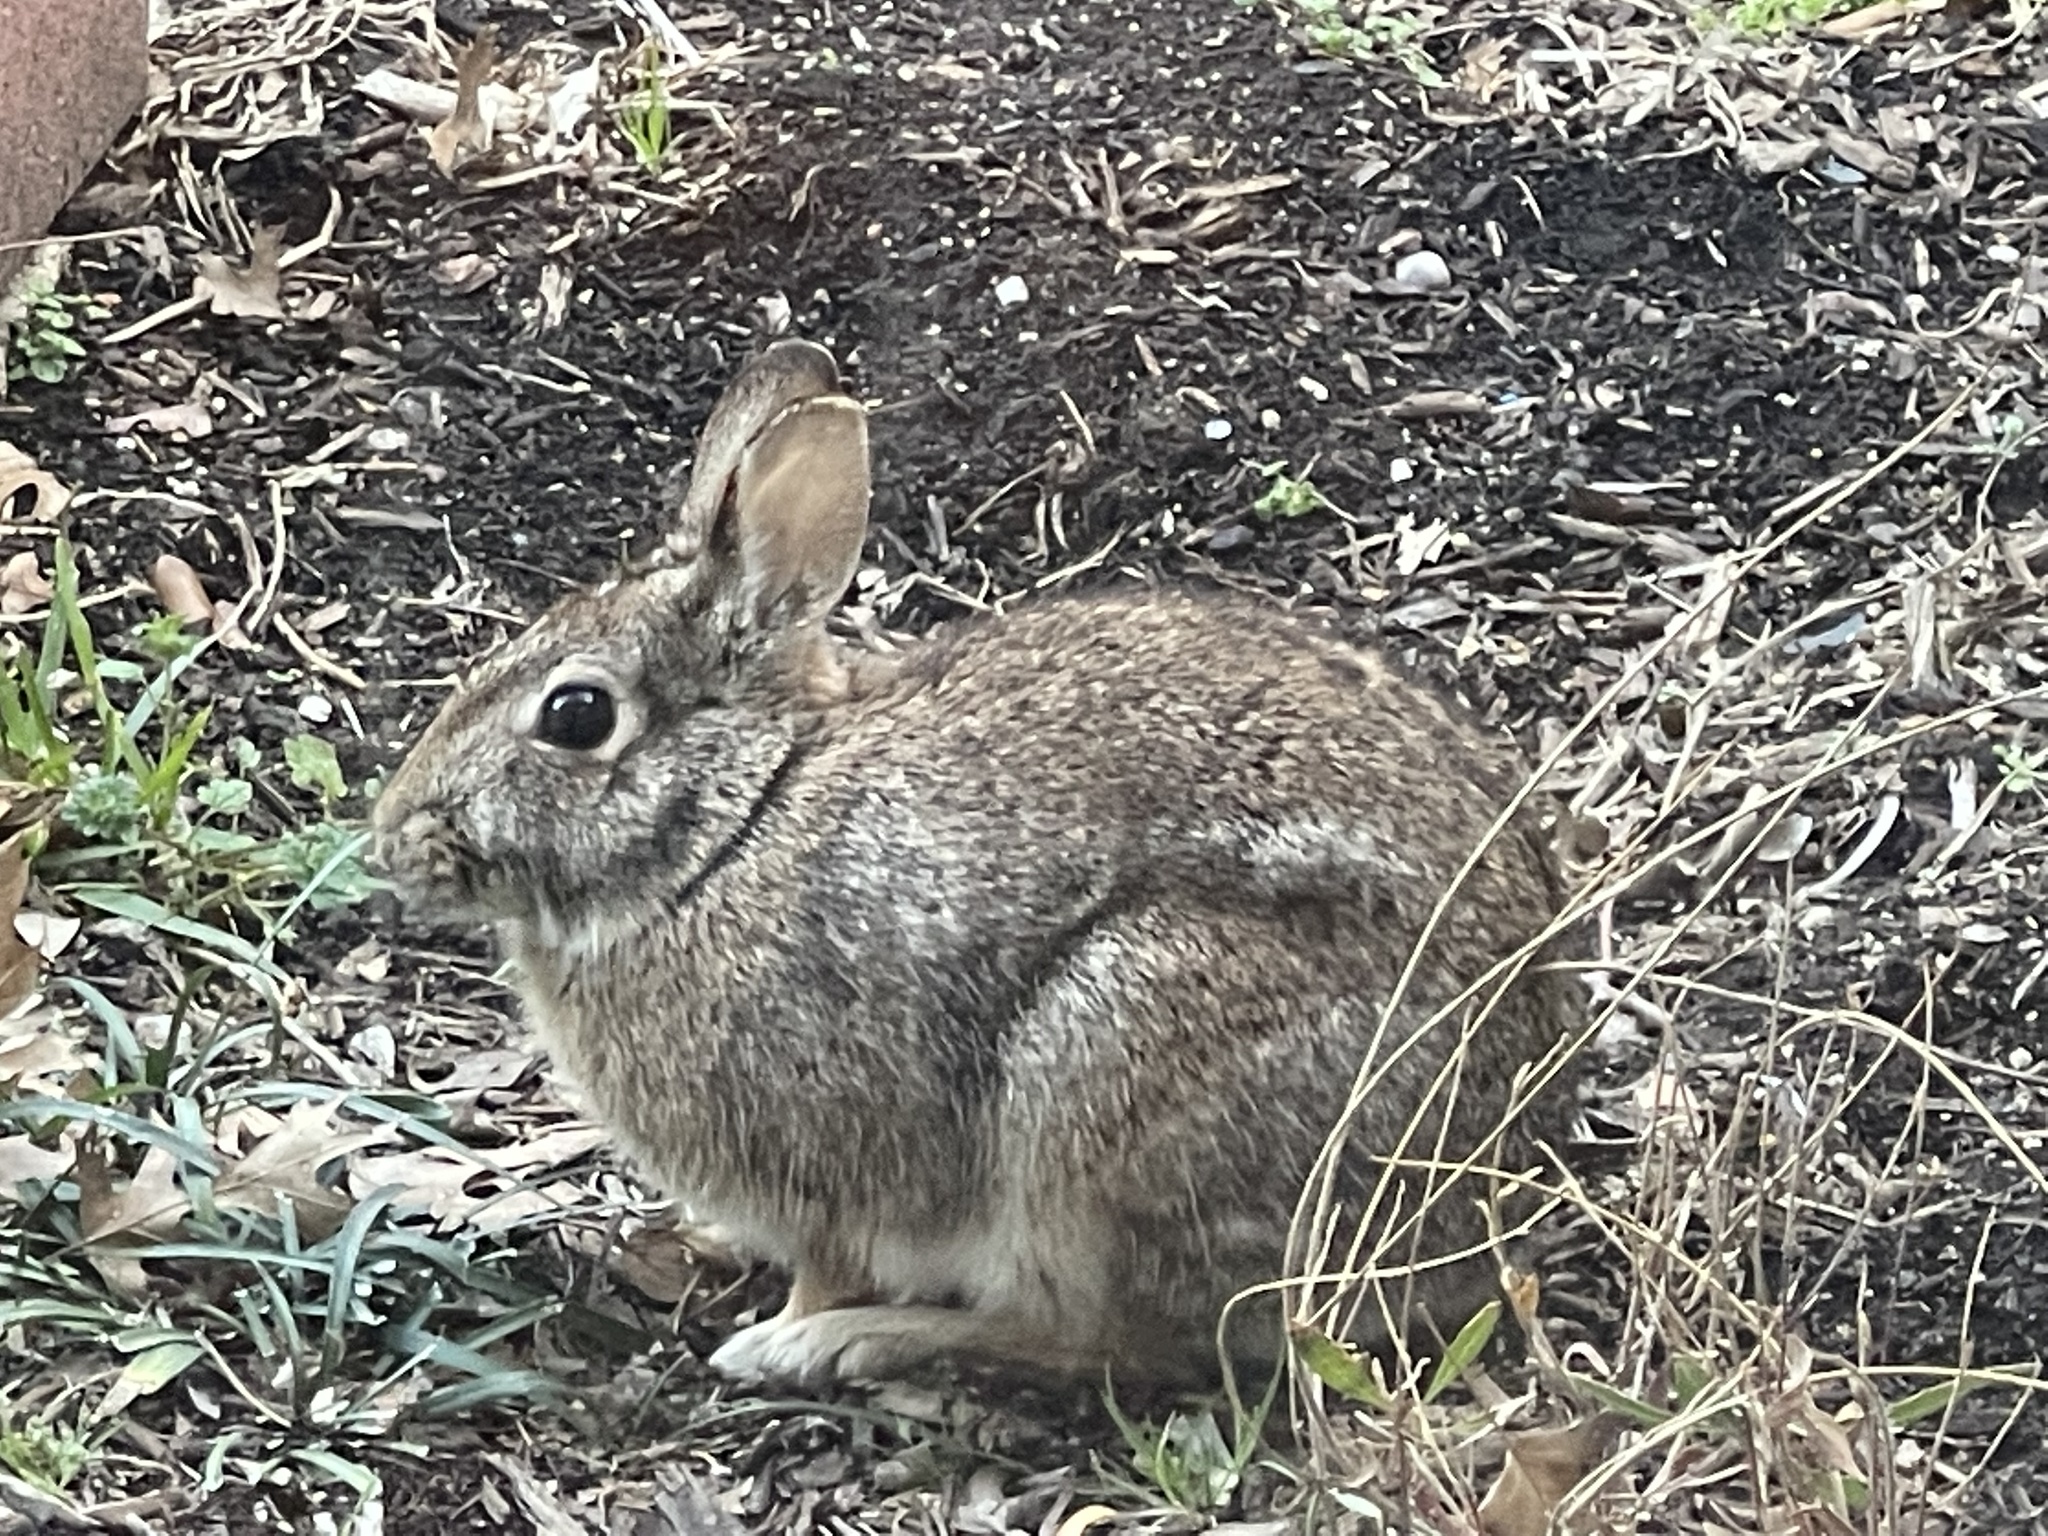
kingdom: Animalia
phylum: Chordata
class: Mammalia
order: Lagomorpha
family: Leporidae
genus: Sylvilagus
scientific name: Sylvilagus floridanus
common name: Eastern cottontail
